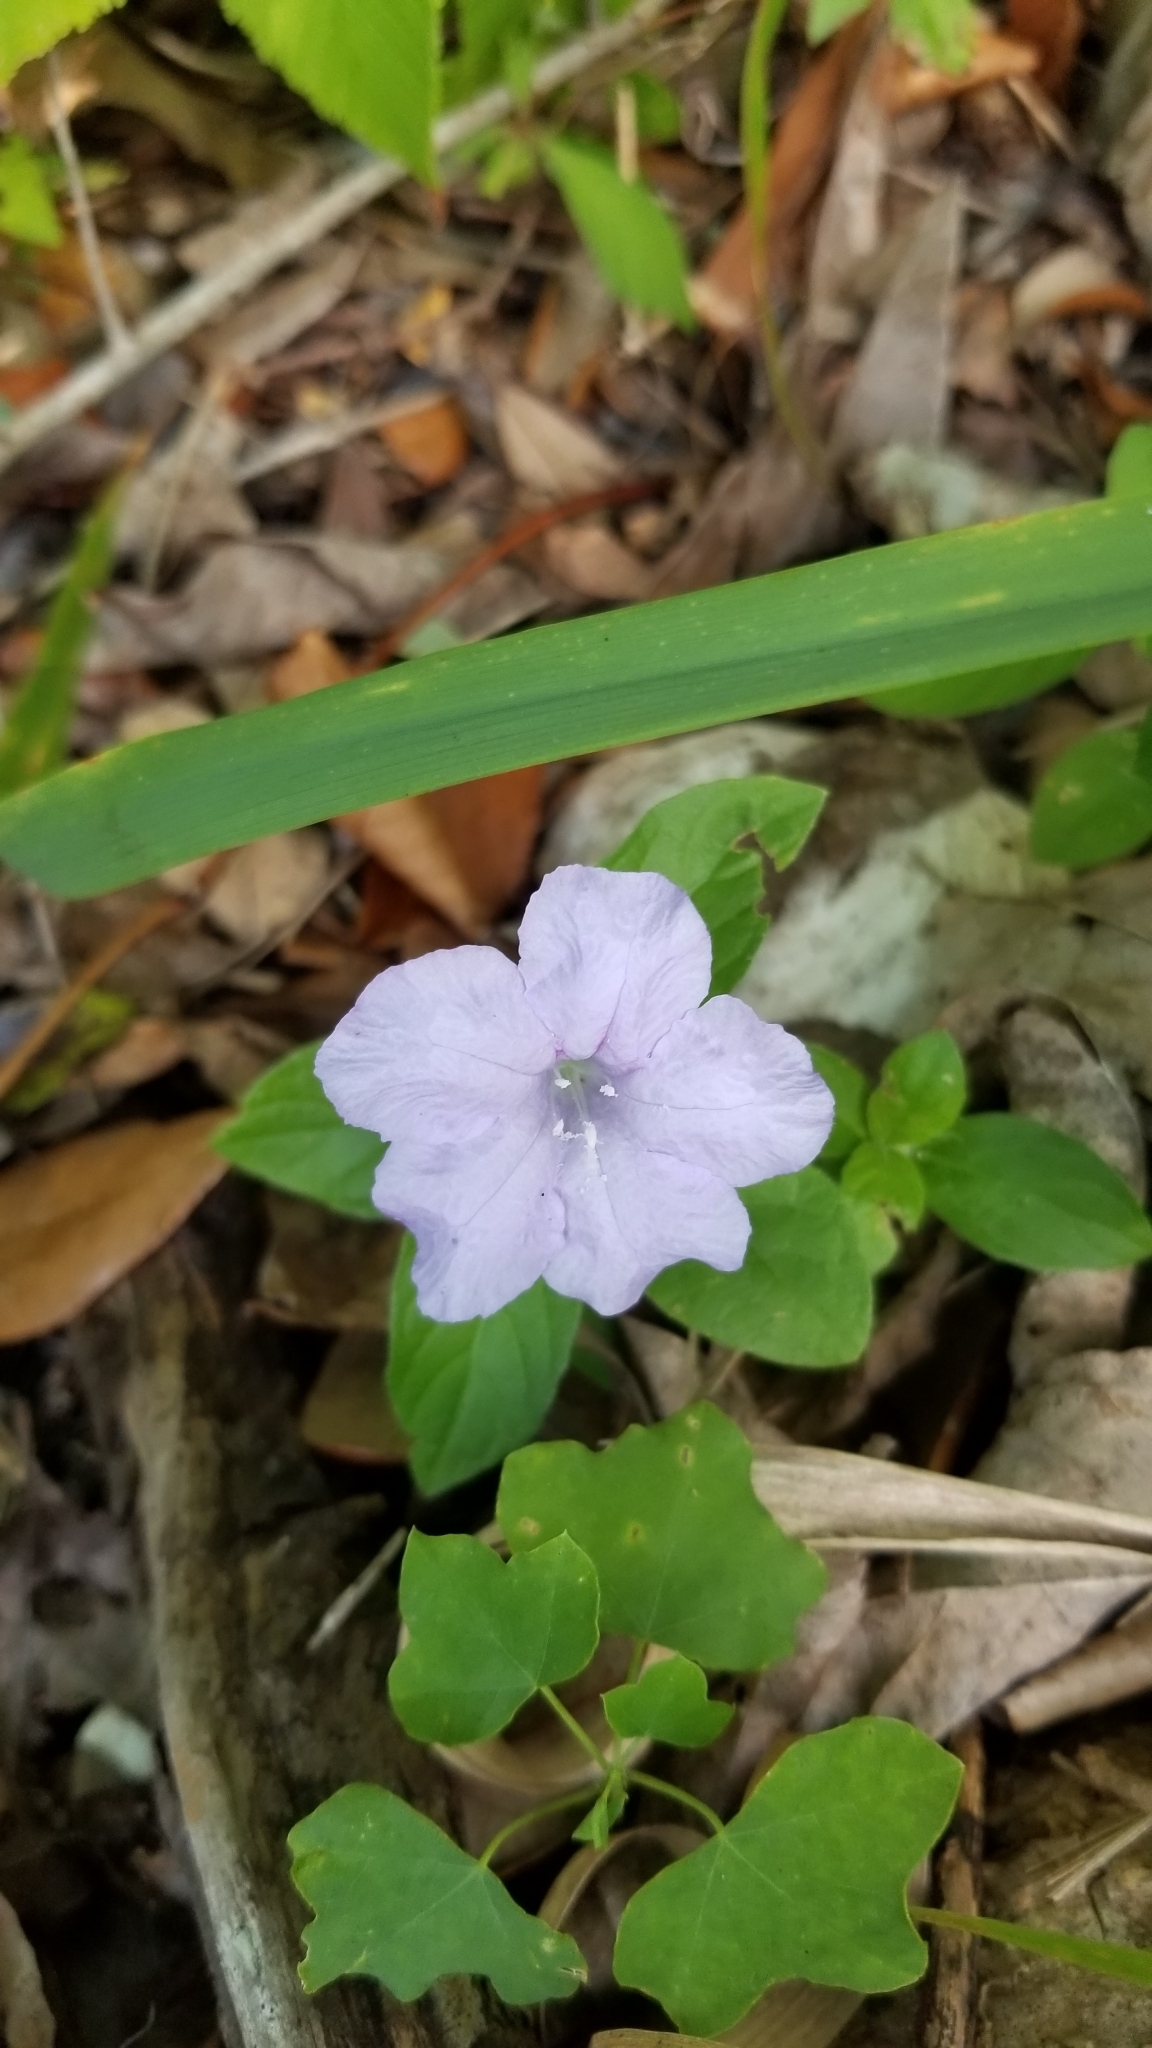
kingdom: Plantae
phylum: Tracheophyta
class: Magnoliopsida
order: Lamiales
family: Acanthaceae
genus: Ruellia
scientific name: Ruellia caroliniensis
